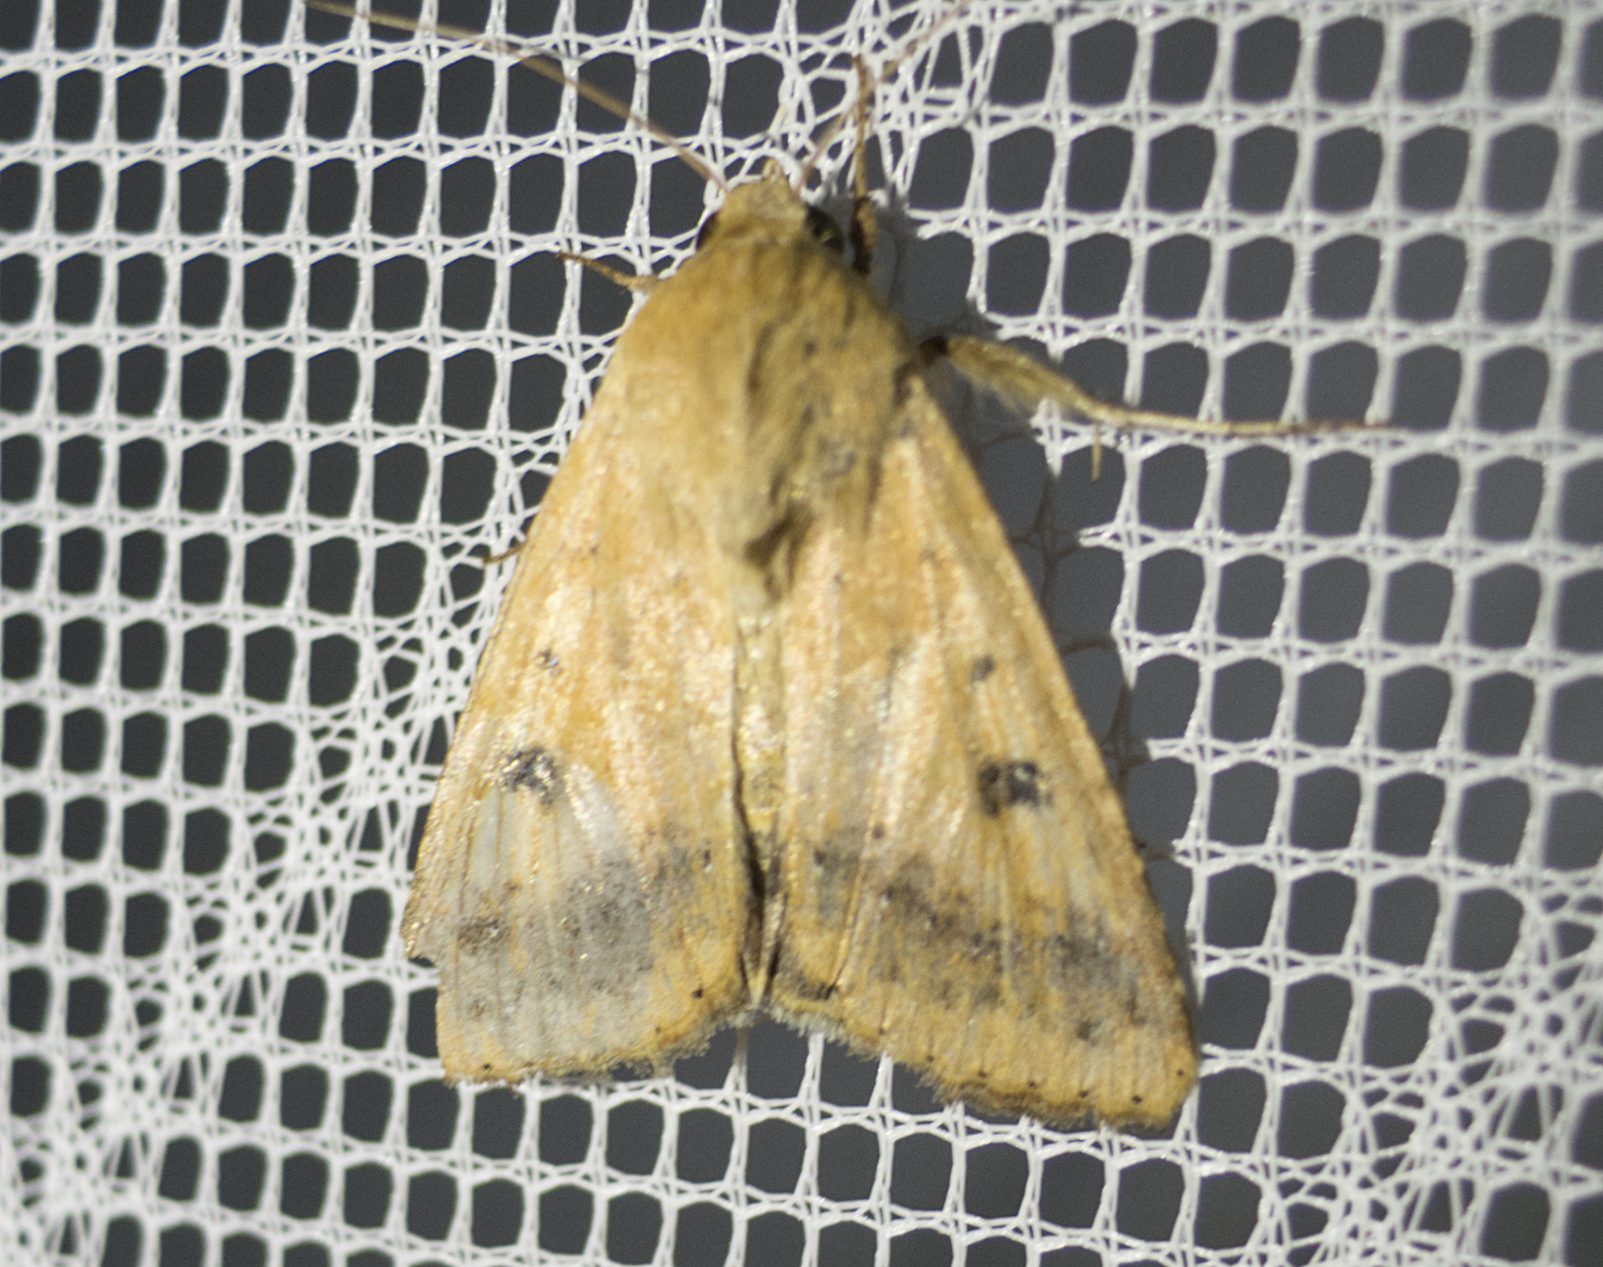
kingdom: Animalia
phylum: Arthropoda
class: Insecta
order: Lepidoptera
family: Noctuidae
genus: Helicoverpa
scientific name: Helicoverpa armigera
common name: Cotton bollworm
